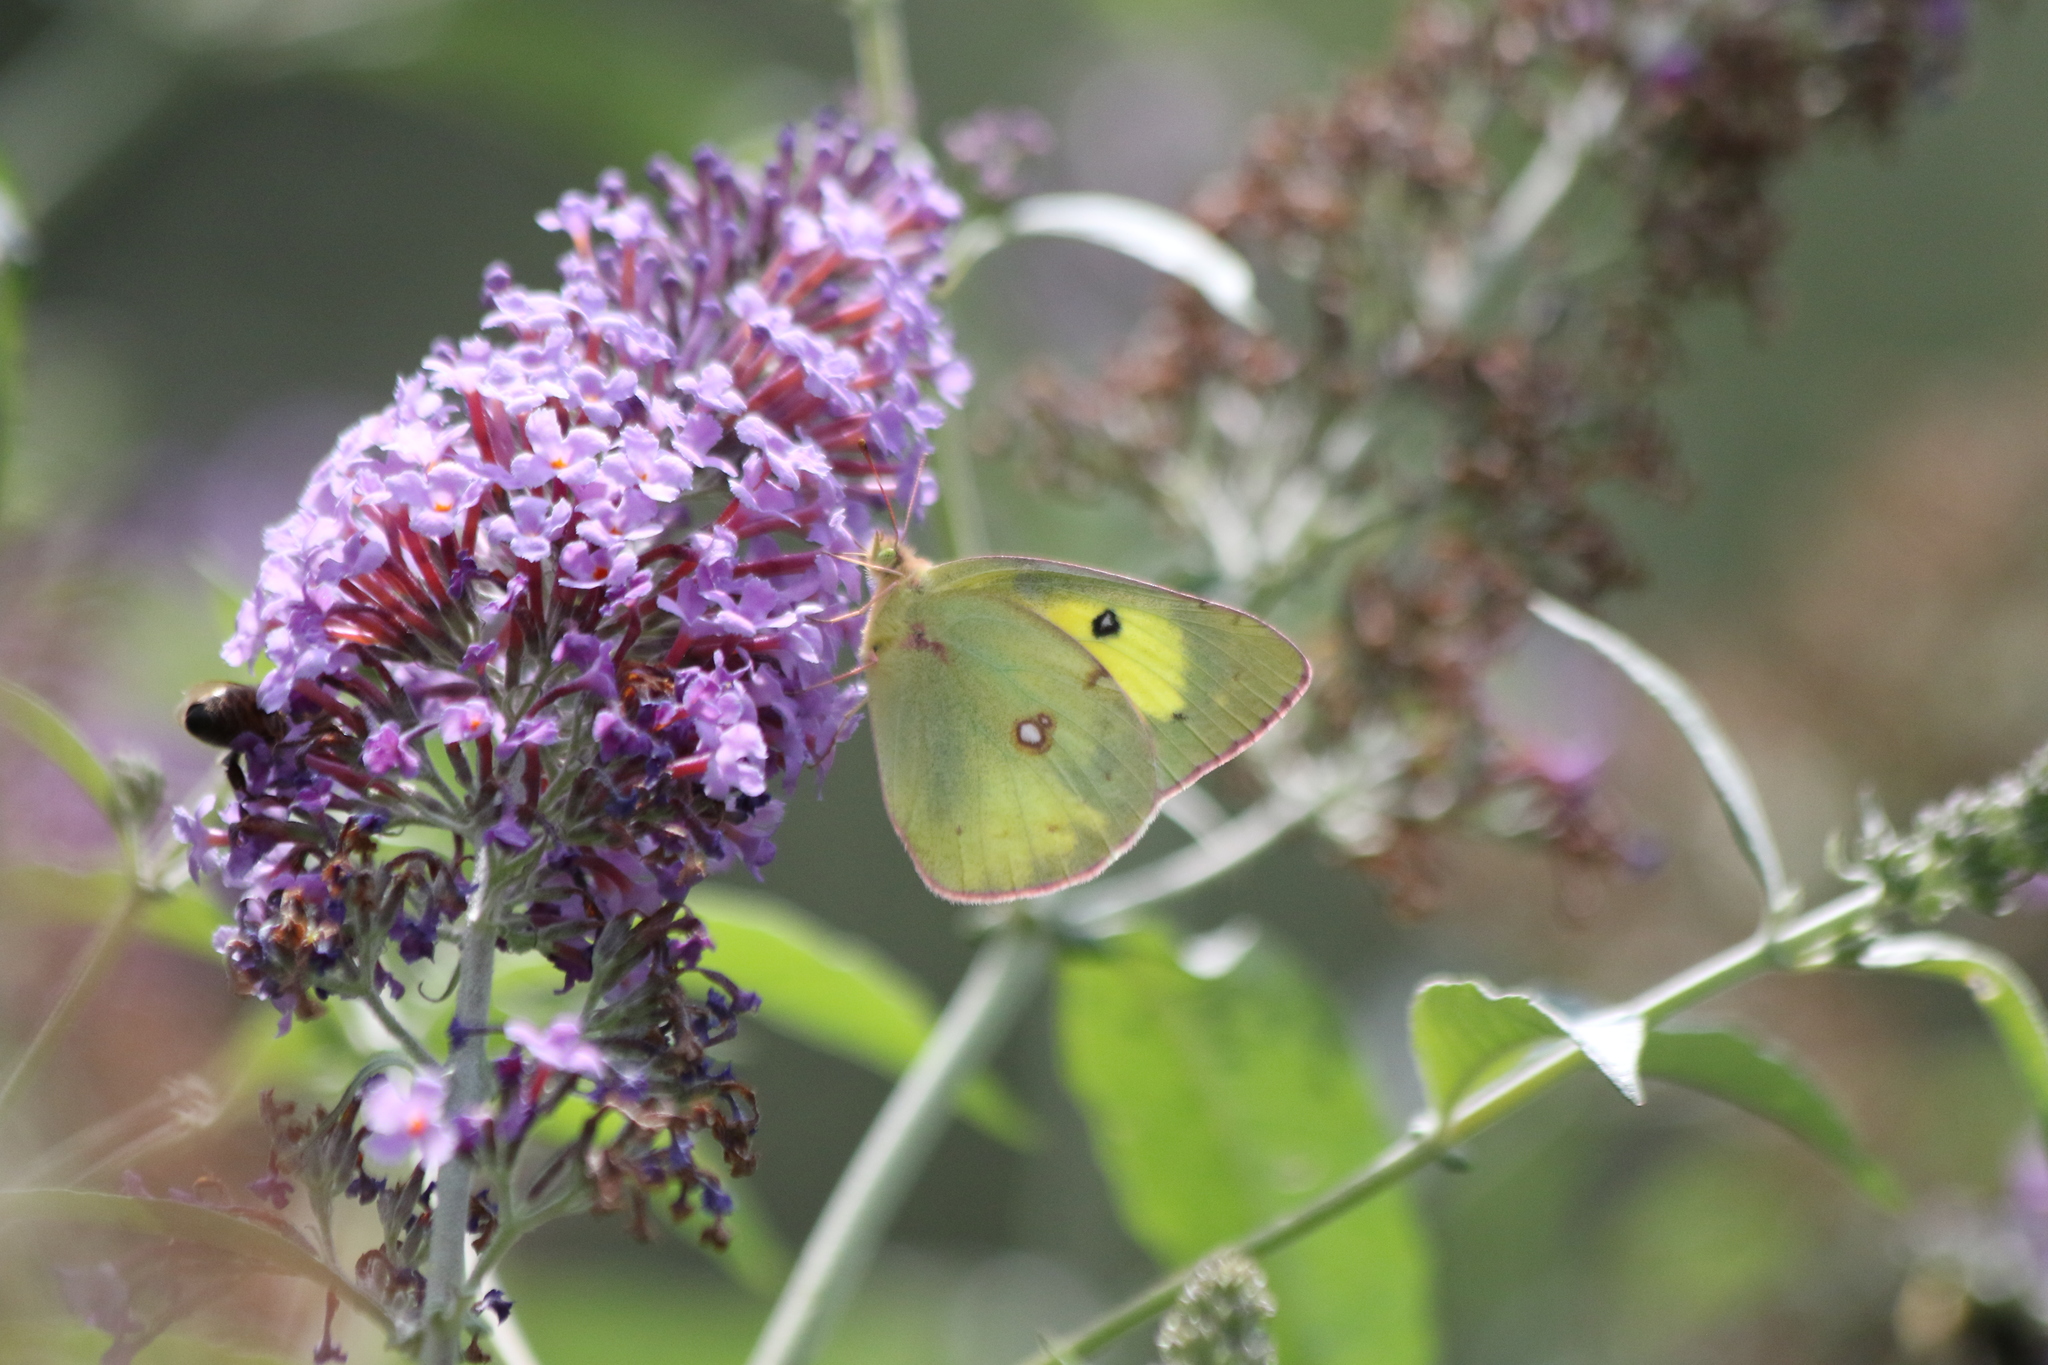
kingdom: Animalia
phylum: Arthropoda
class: Insecta
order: Lepidoptera
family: Pieridae
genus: Colias
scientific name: Colias philodice
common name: Clouded sulphur
